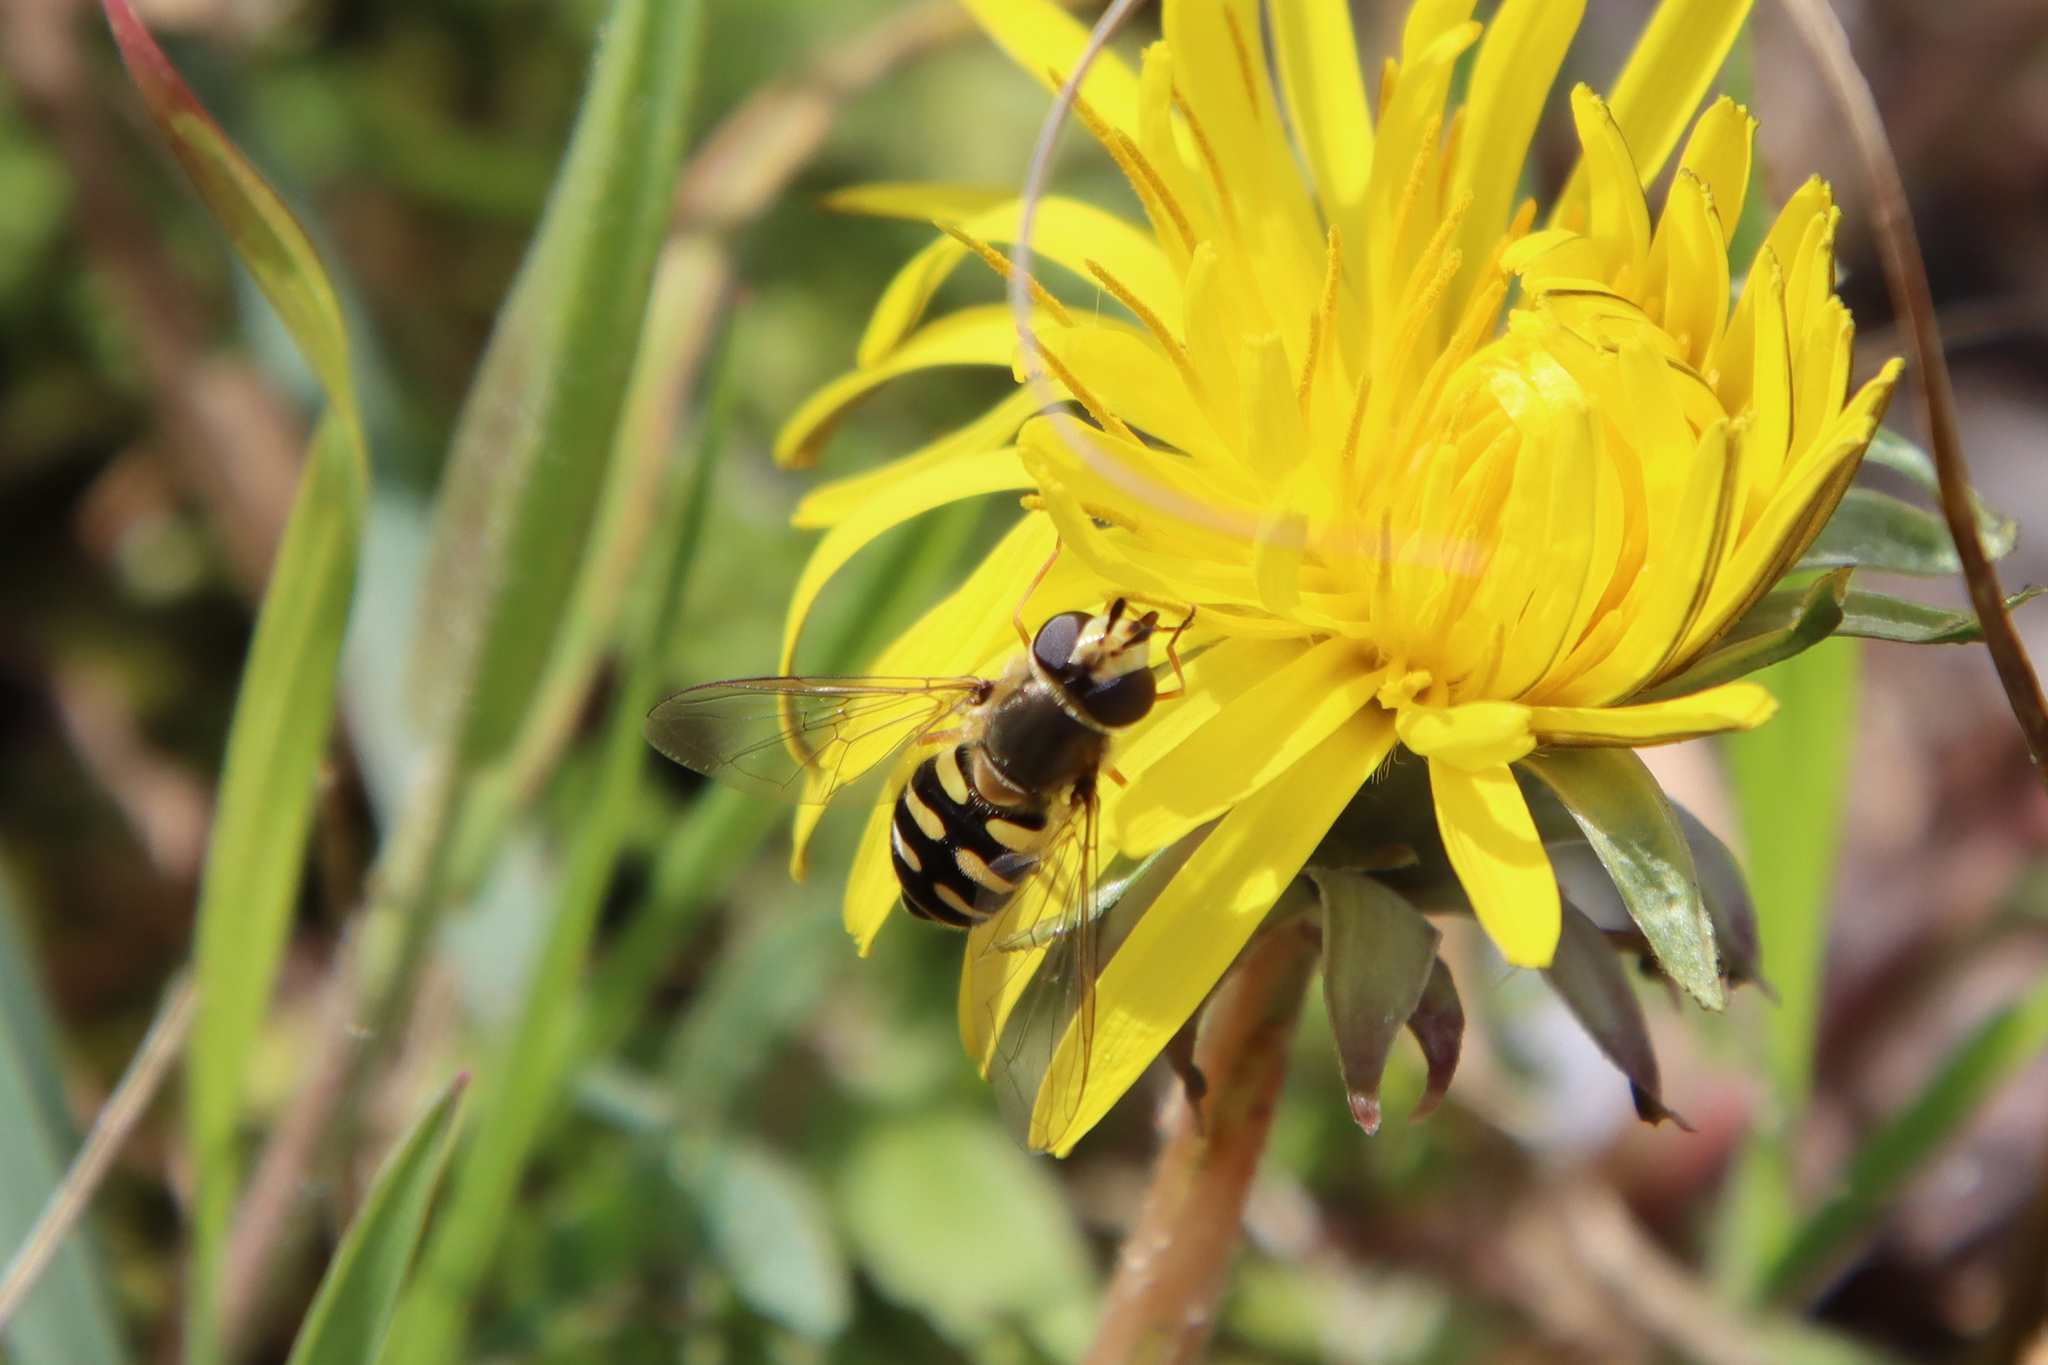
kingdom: Animalia
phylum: Arthropoda
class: Insecta
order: Diptera
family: Syrphidae
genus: Eupeodes
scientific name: Eupeodes corollae
